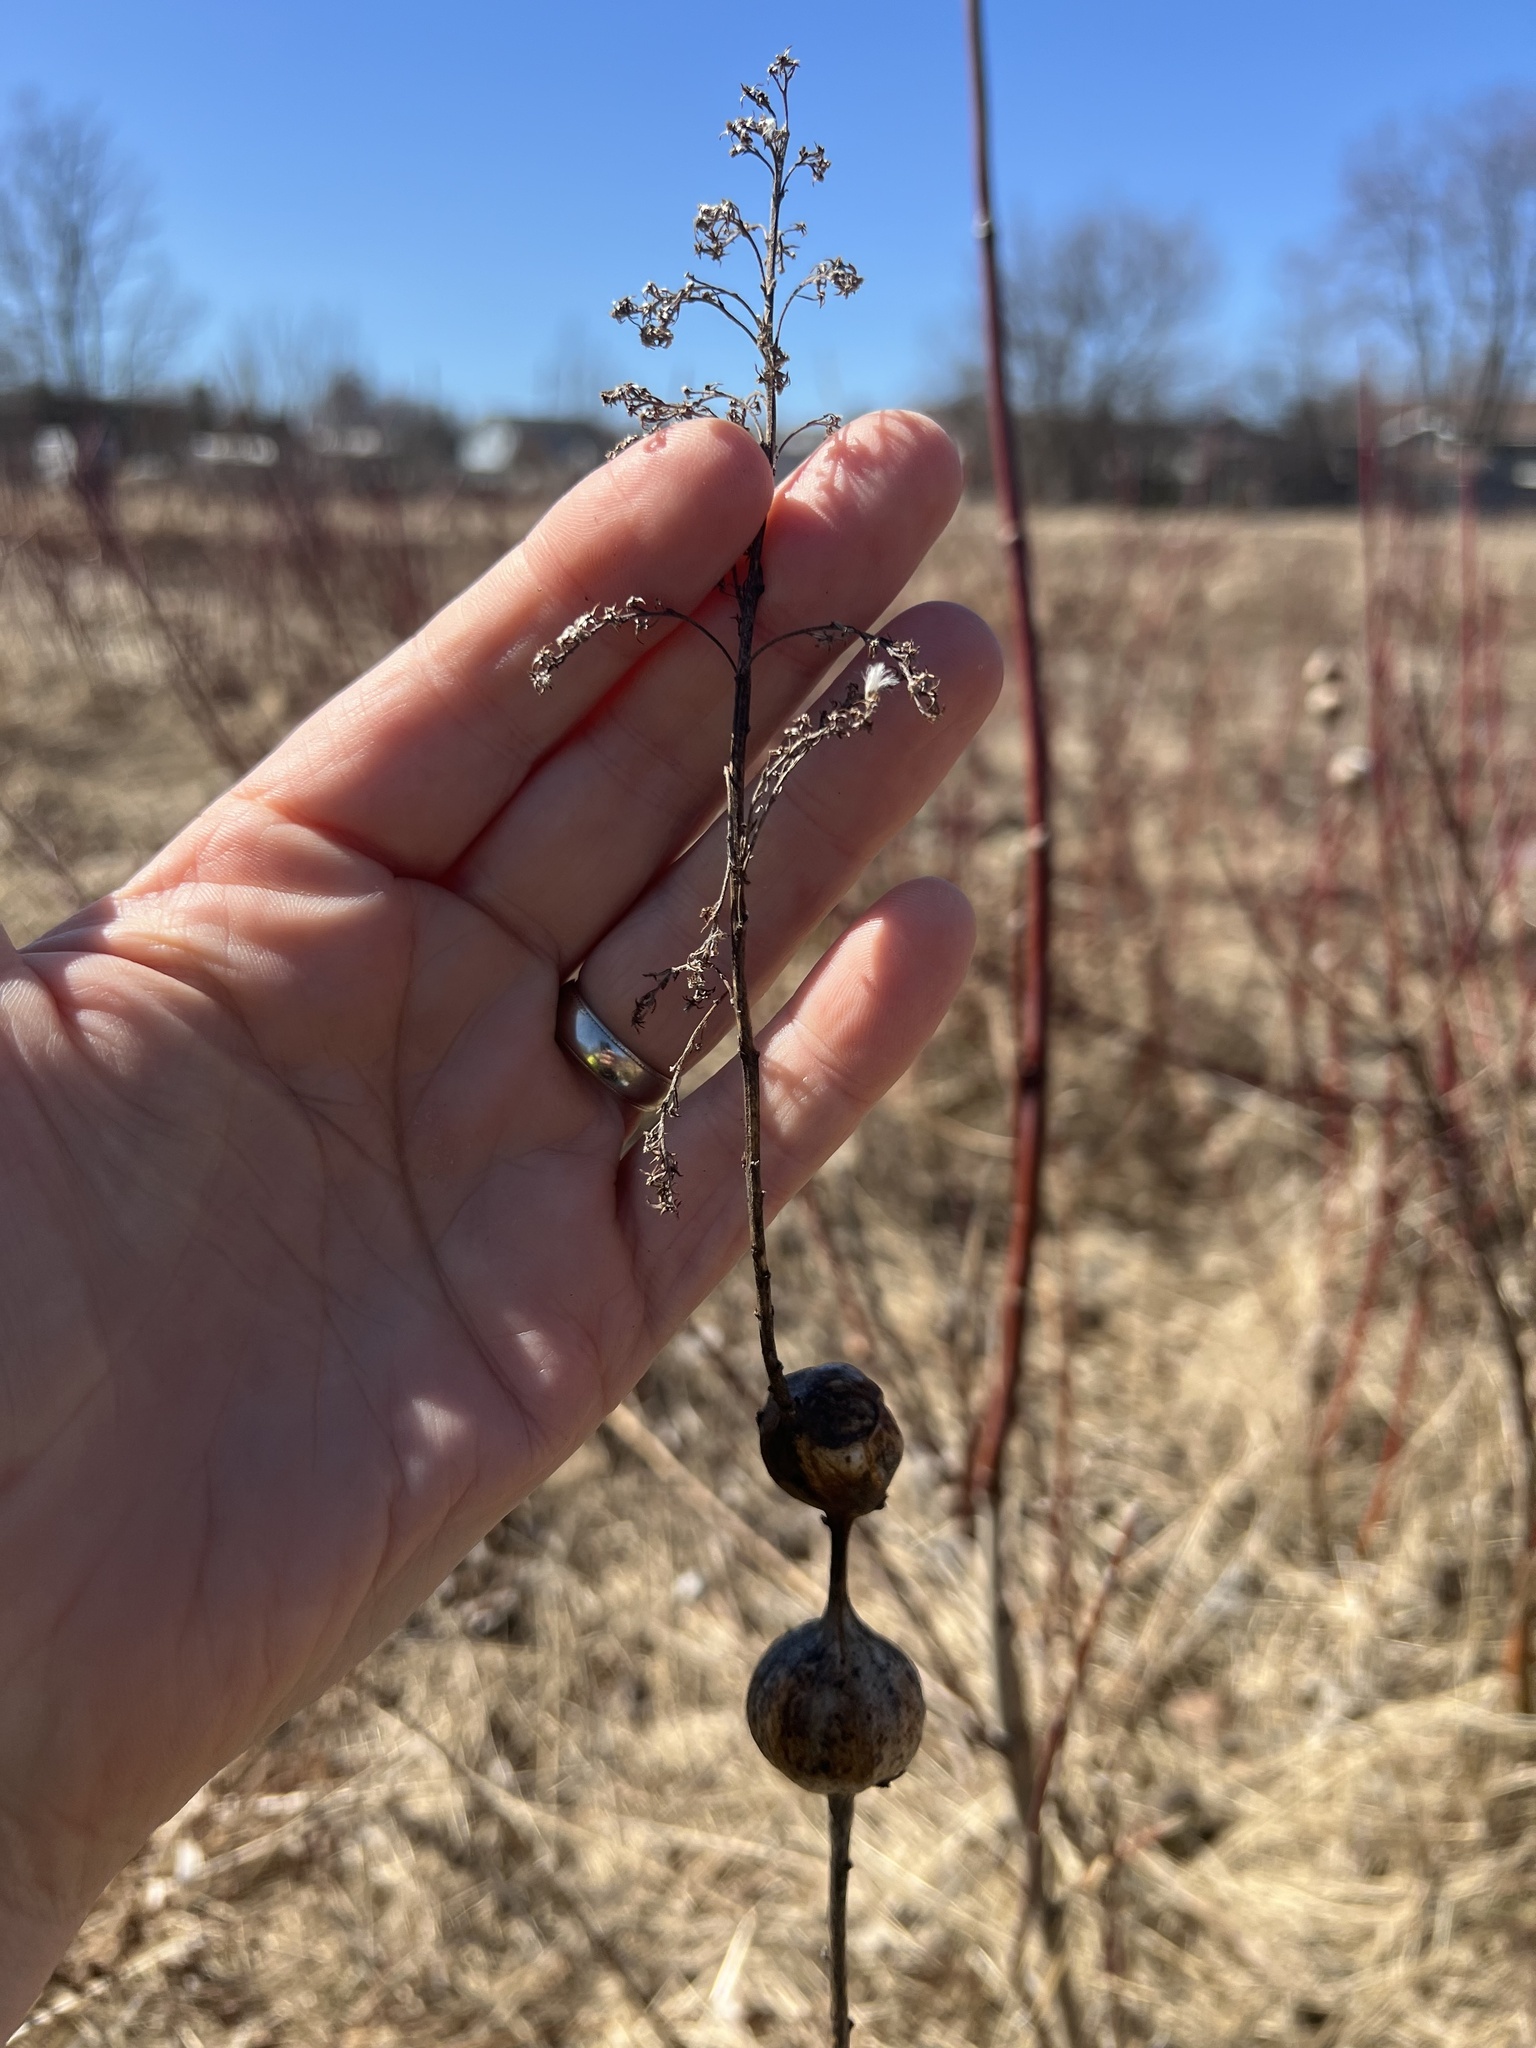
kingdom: Animalia
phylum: Arthropoda
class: Insecta
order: Diptera
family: Tephritidae
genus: Eurosta
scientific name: Eurosta solidaginis
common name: Goldenrod gall fly
